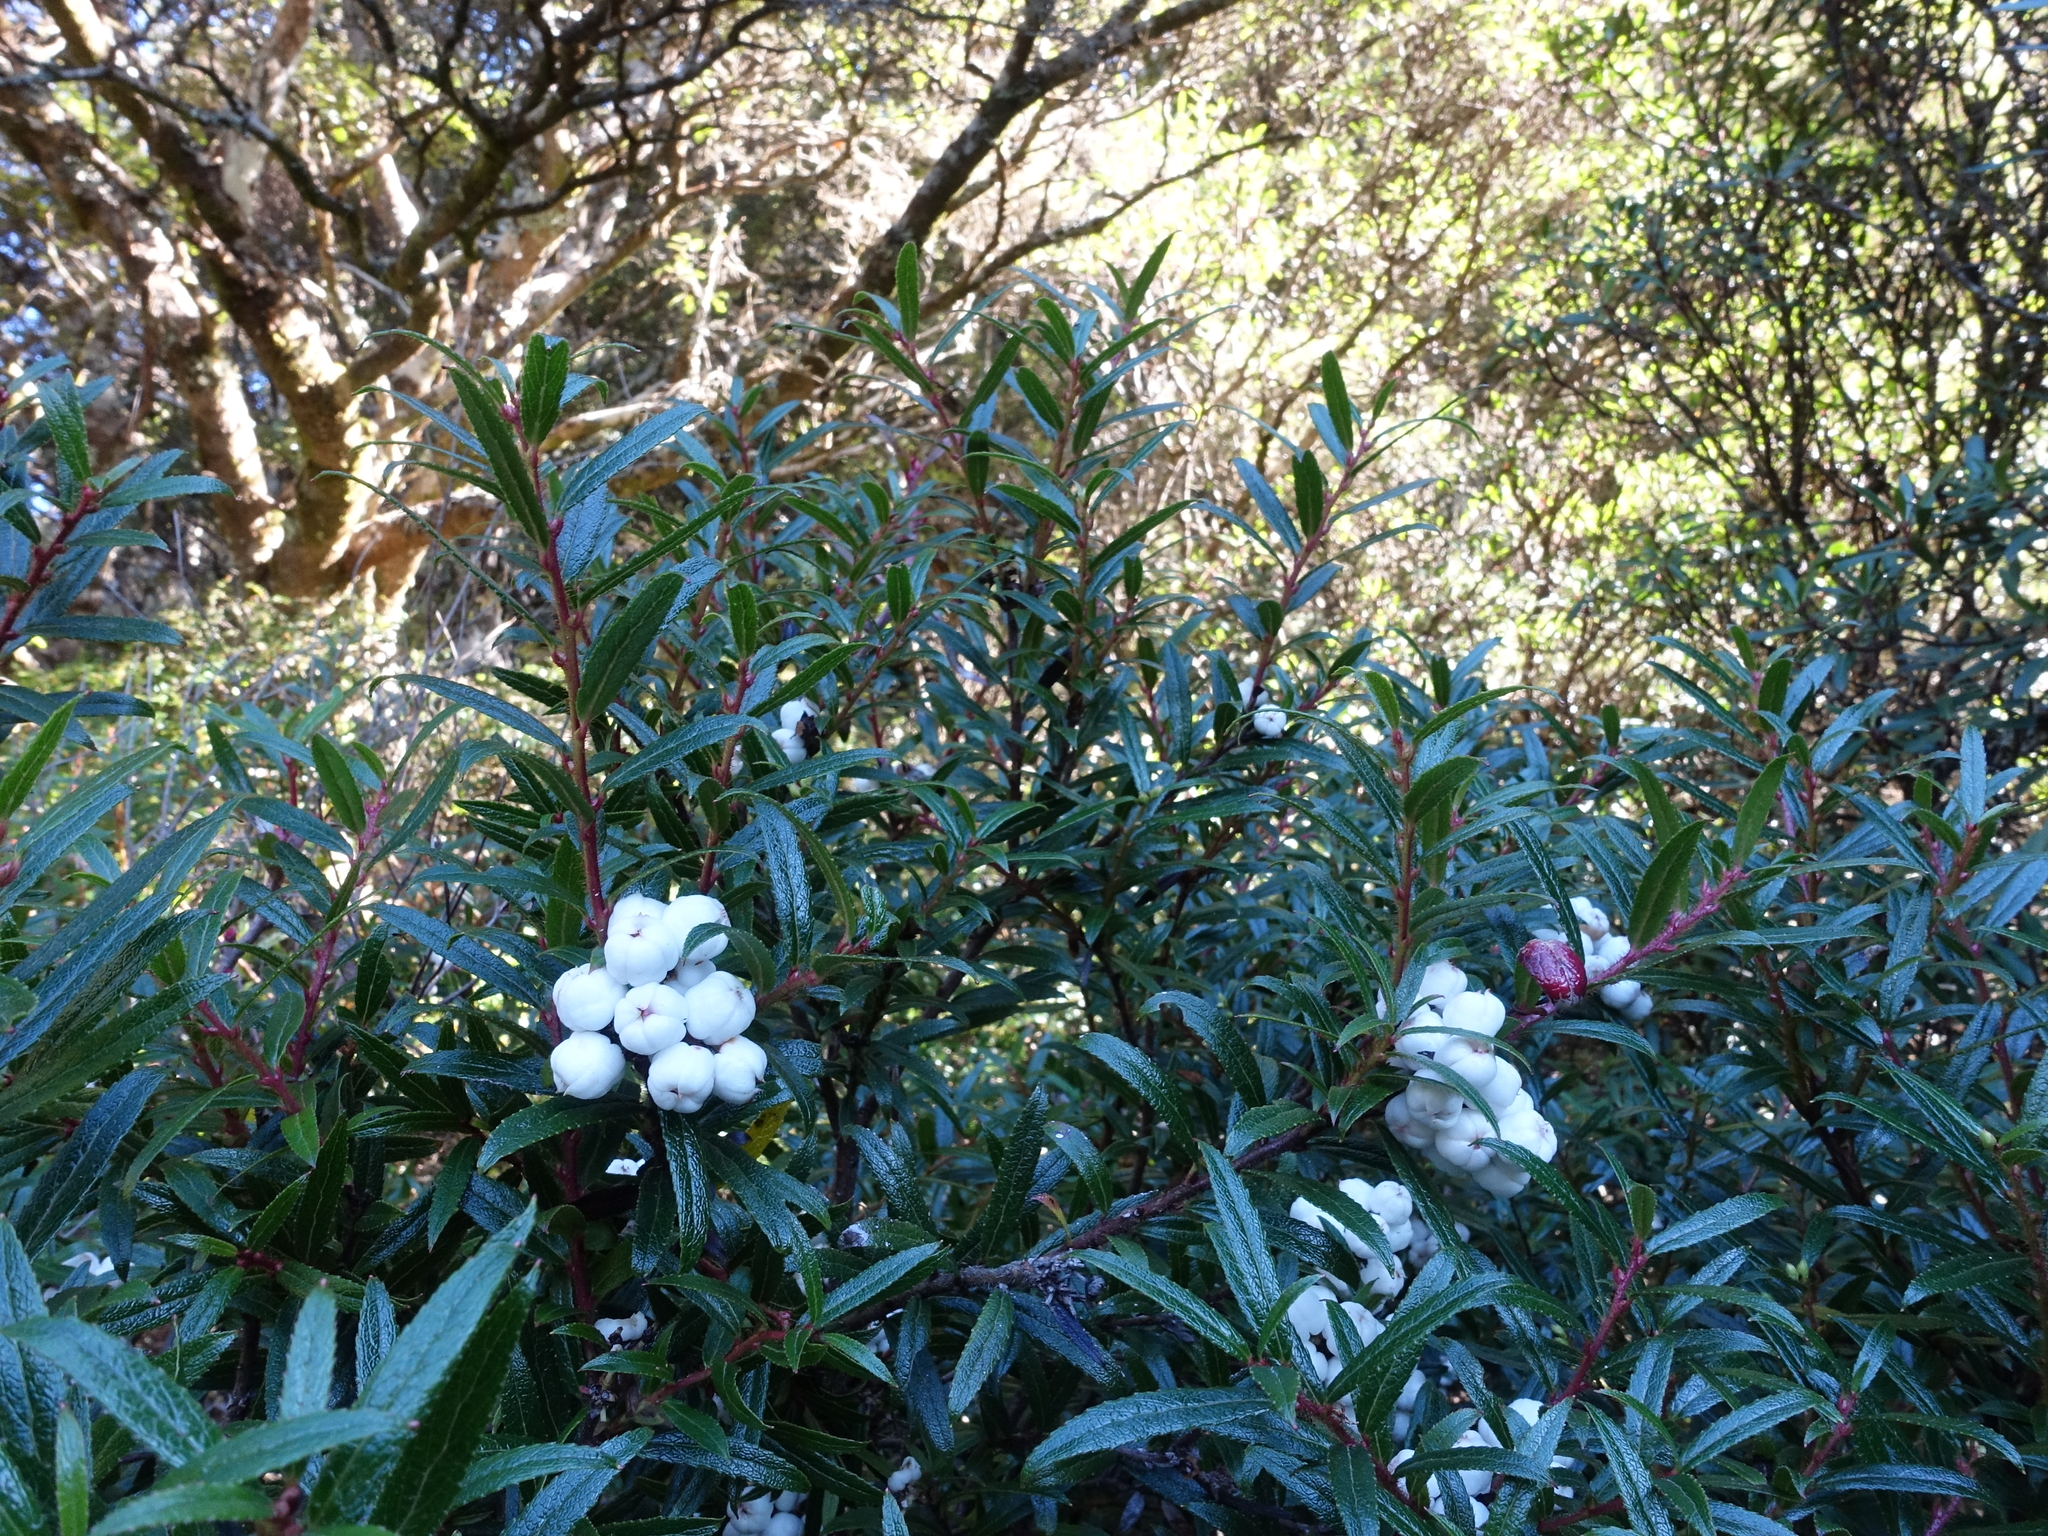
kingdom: Plantae
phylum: Tracheophyta
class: Magnoliopsida
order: Ericales
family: Ericaceae
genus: Gaultheria
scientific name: Gaultheria hispida
